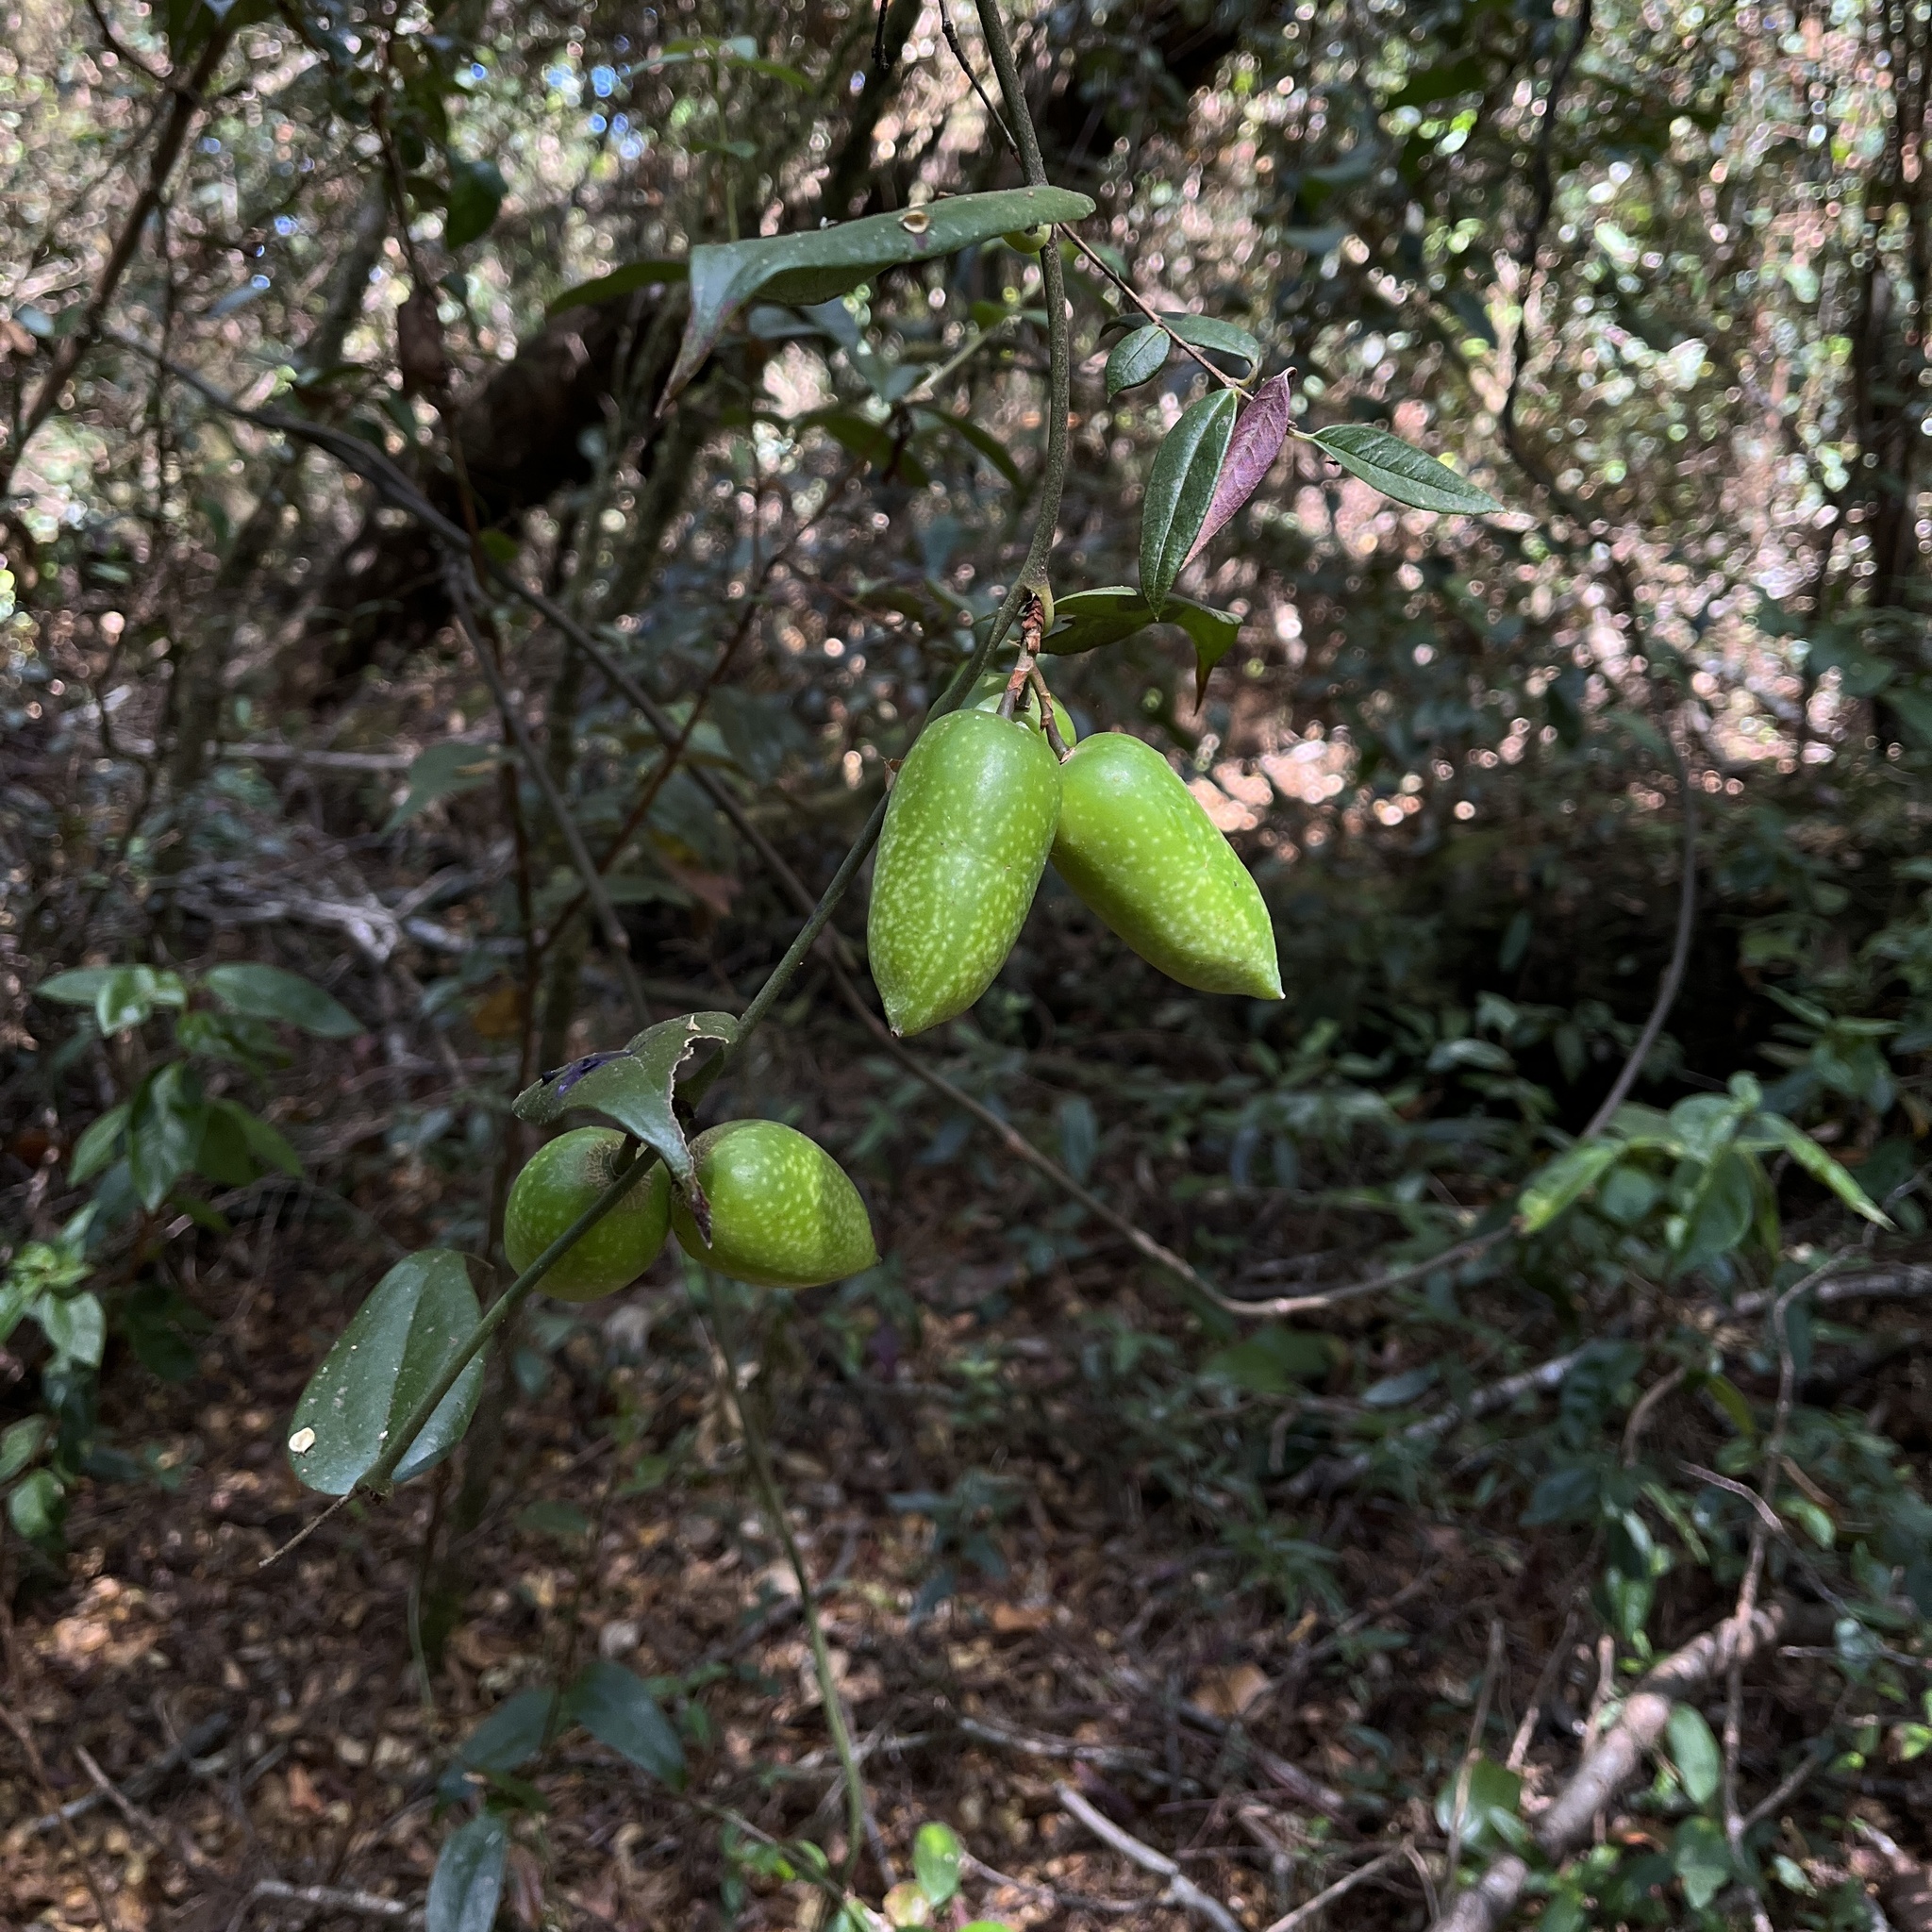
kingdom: Plantae
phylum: Tracheophyta
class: Liliopsida
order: Liliales
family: Philesiaceae
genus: Lapageria
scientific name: Lapageria rosea
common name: Chilean-bellflower
